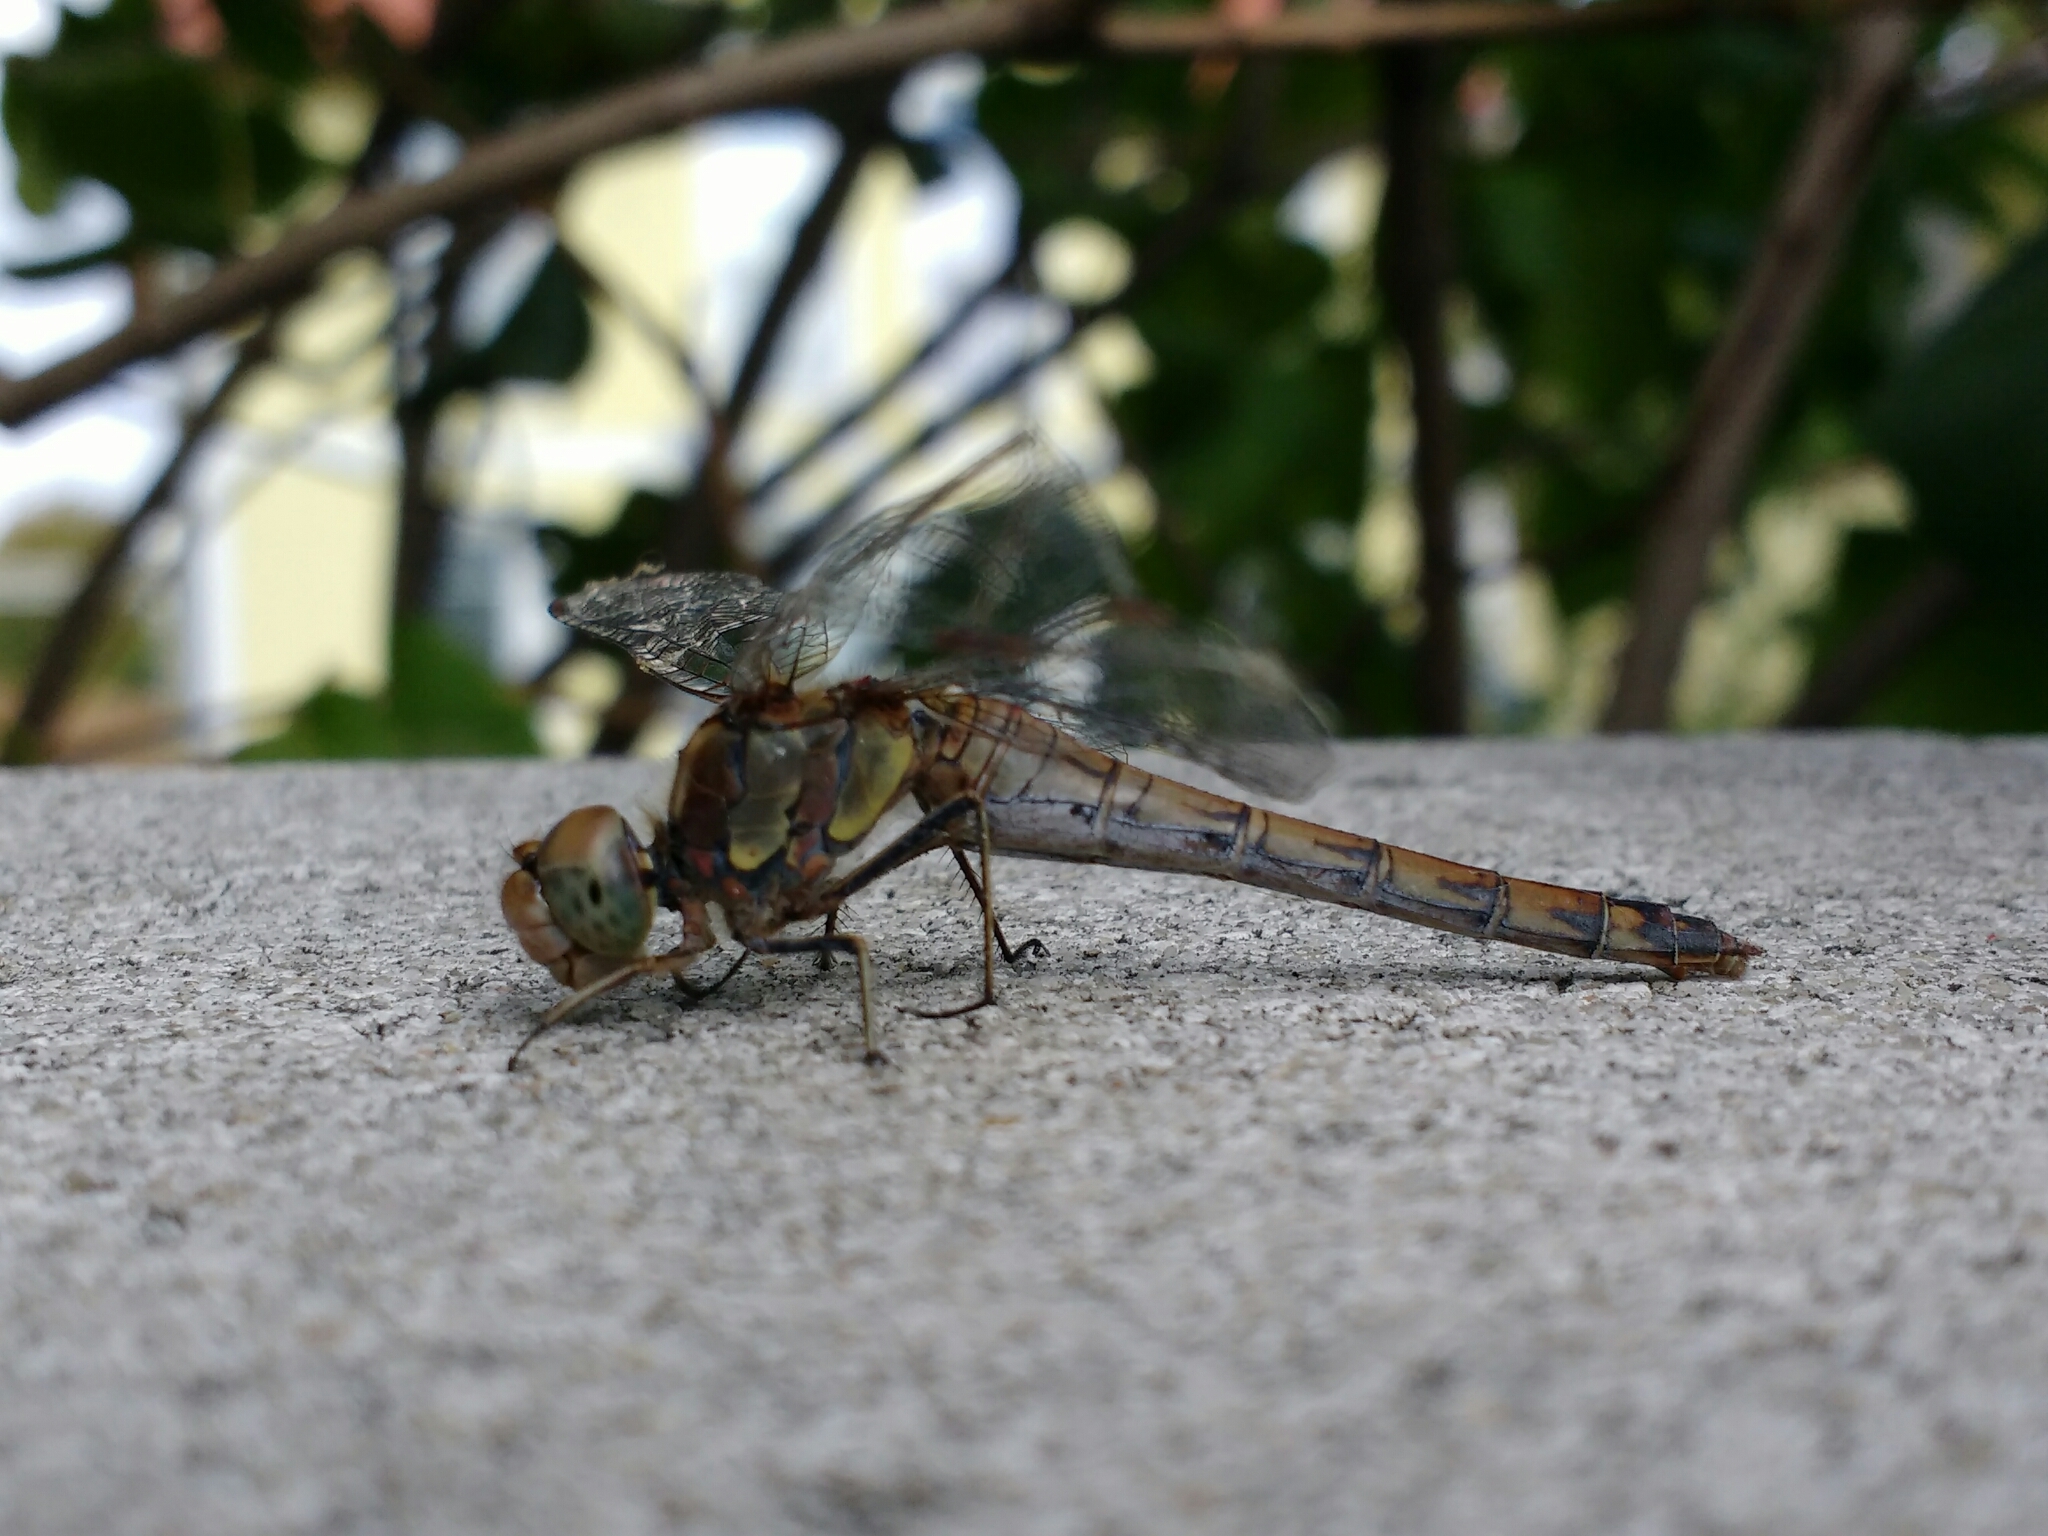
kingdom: Animalia
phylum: Arthropoda
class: Insecta
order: Odonata
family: Libellulidae
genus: Sympetrum
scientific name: Sympetrum striolatum
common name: Common darter
